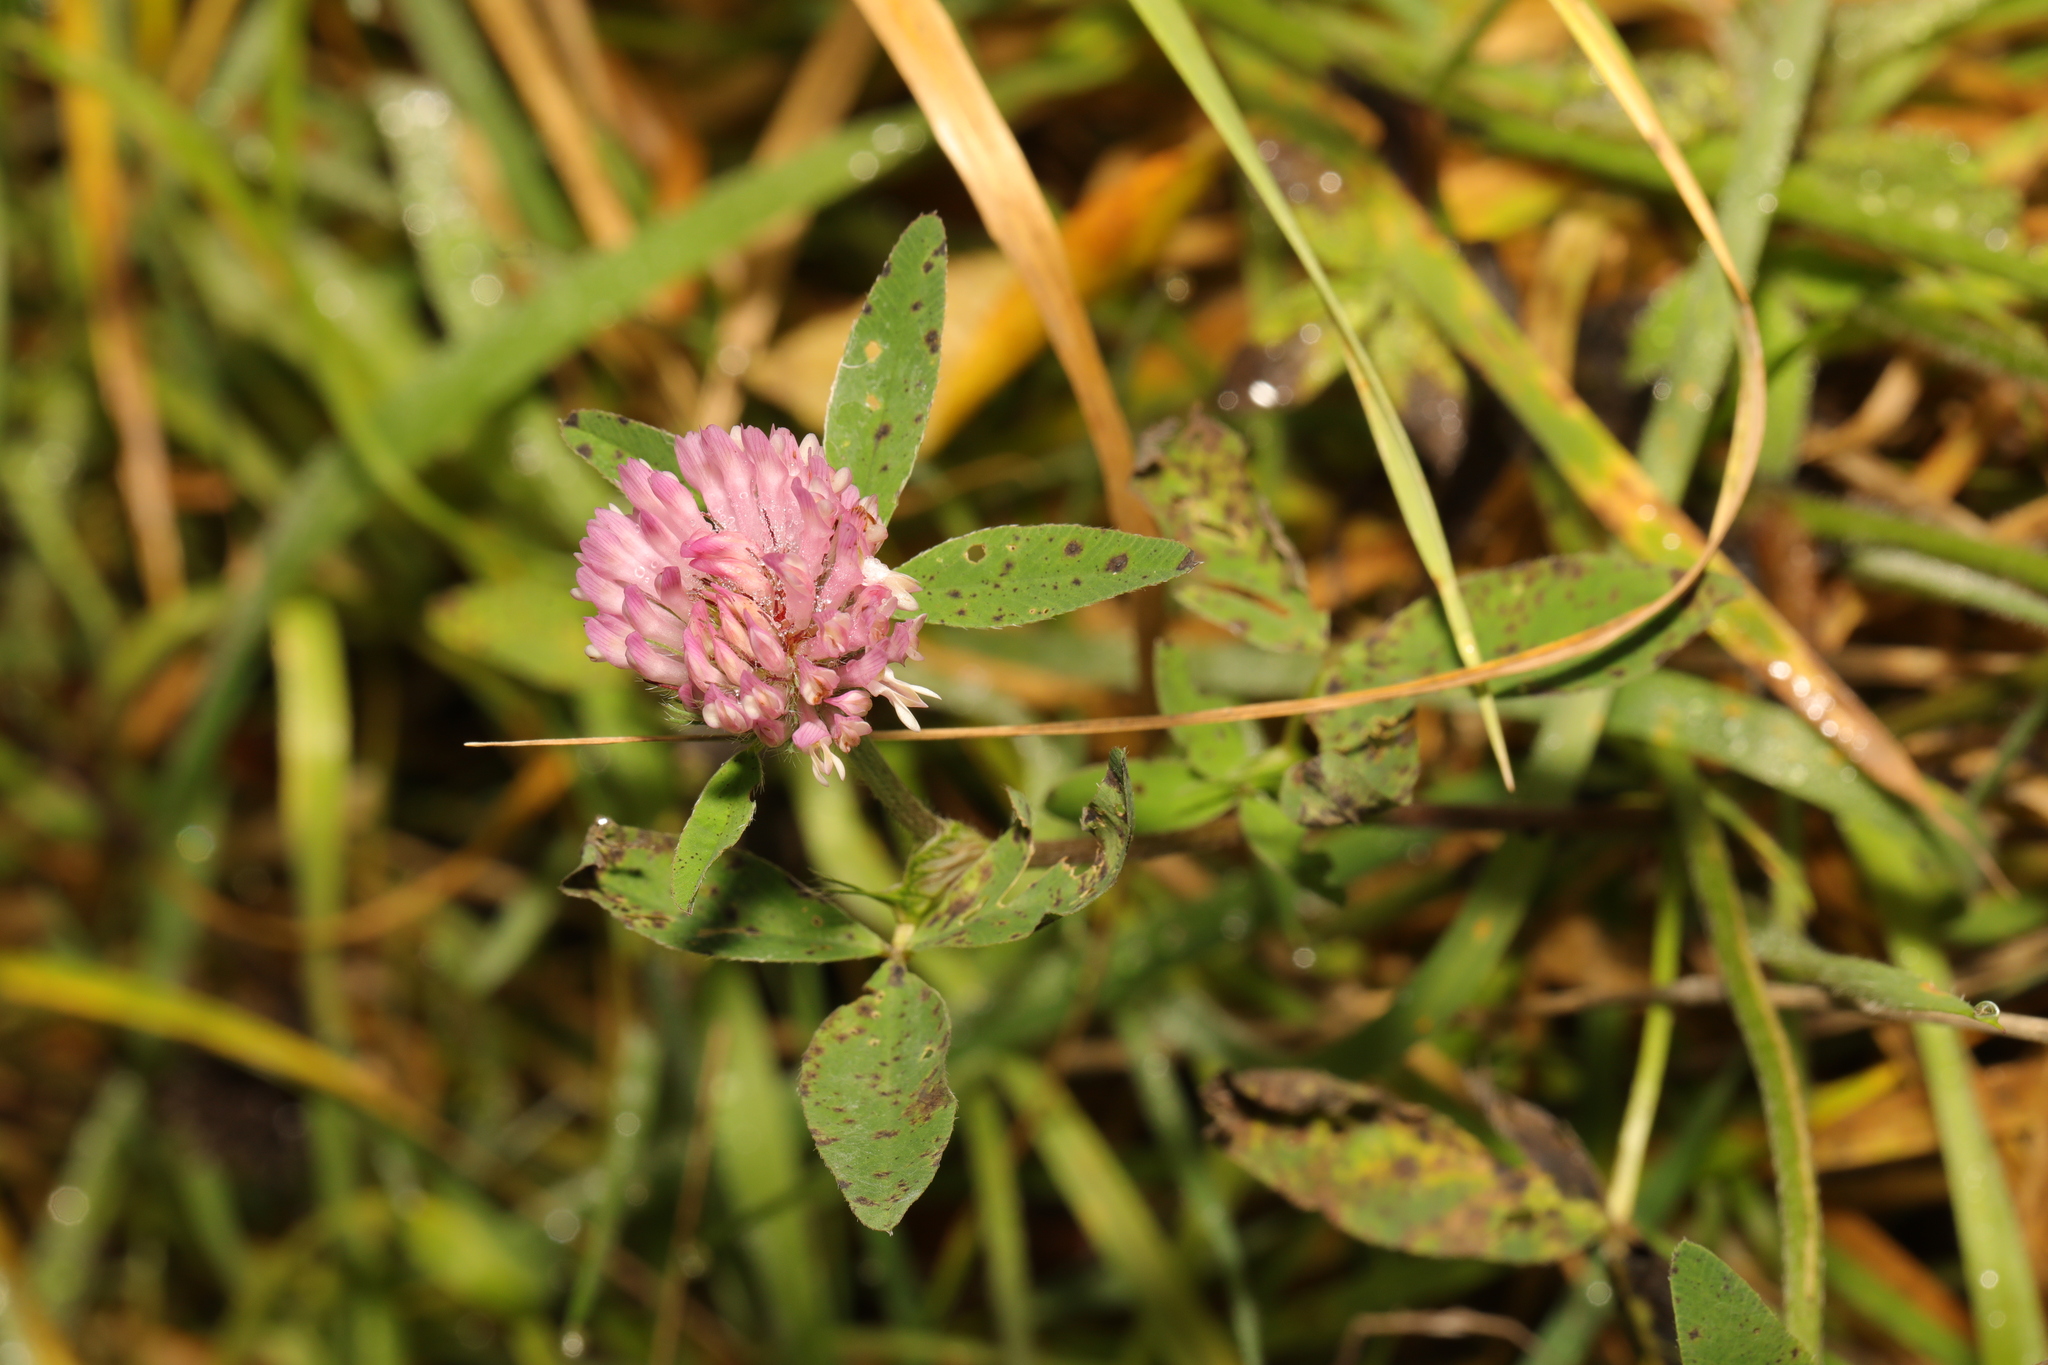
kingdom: Plantae
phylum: Tracheophyta
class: Magnoliopsida
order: Fabales
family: Fabaceae
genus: Trifolium
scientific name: Trifolium pratense
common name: Red clover
